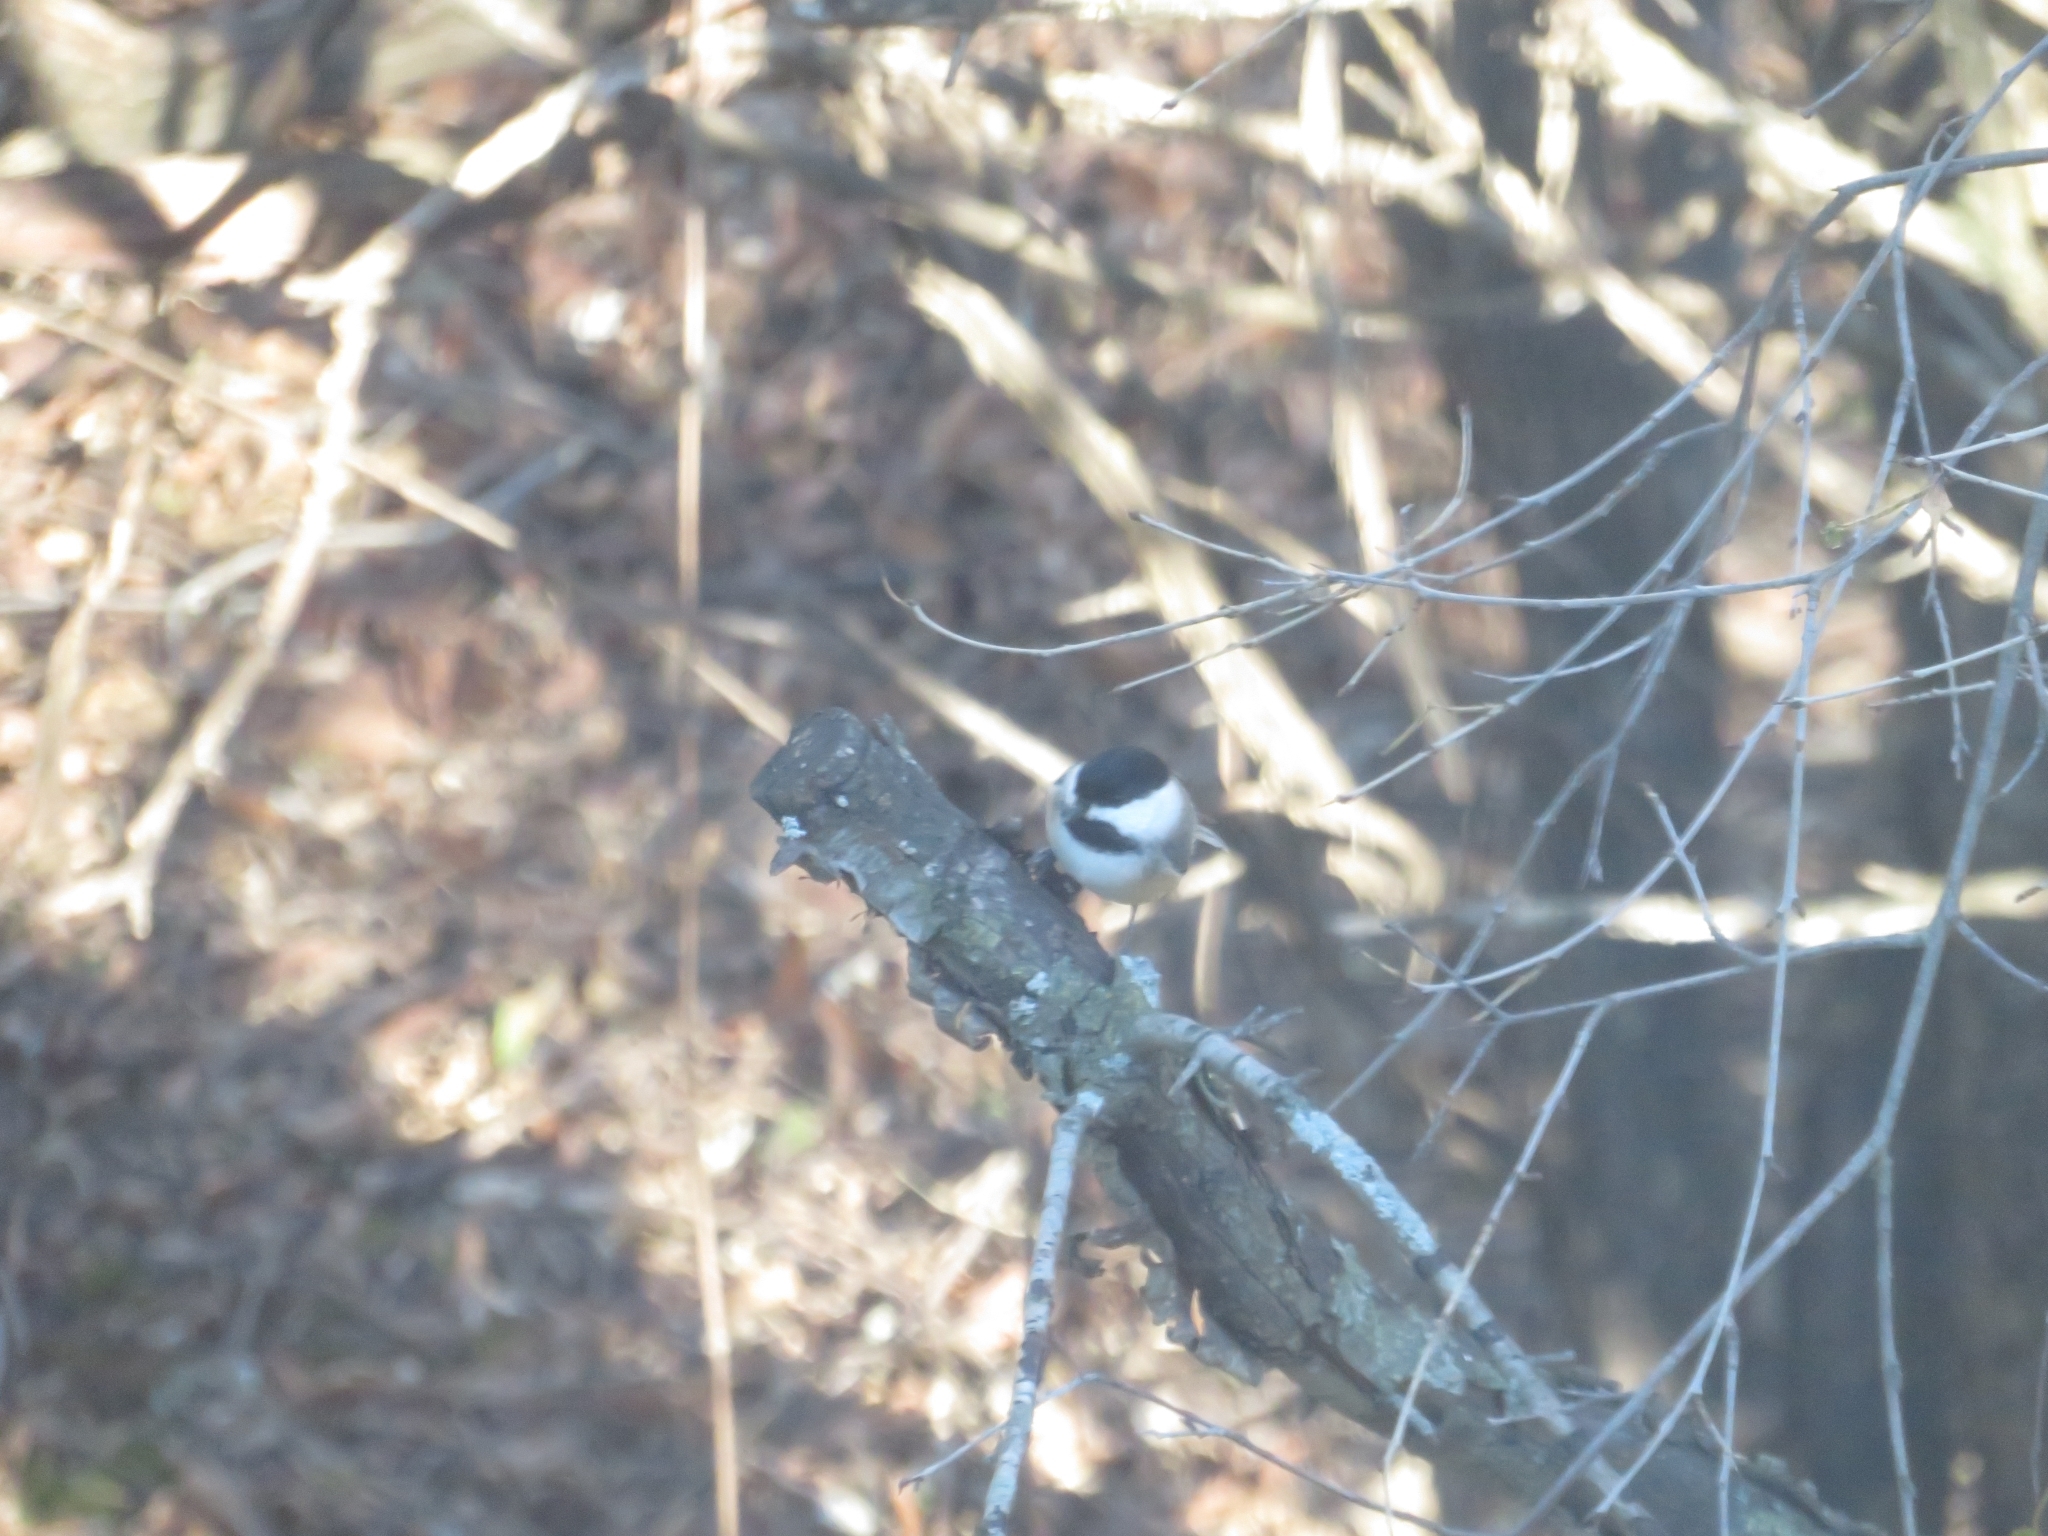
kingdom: Animalia
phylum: Chordata
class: Aves
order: Passeriformes
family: Paridae
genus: Poecile
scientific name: Poecile atricapillus
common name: Black-capped chickadee
